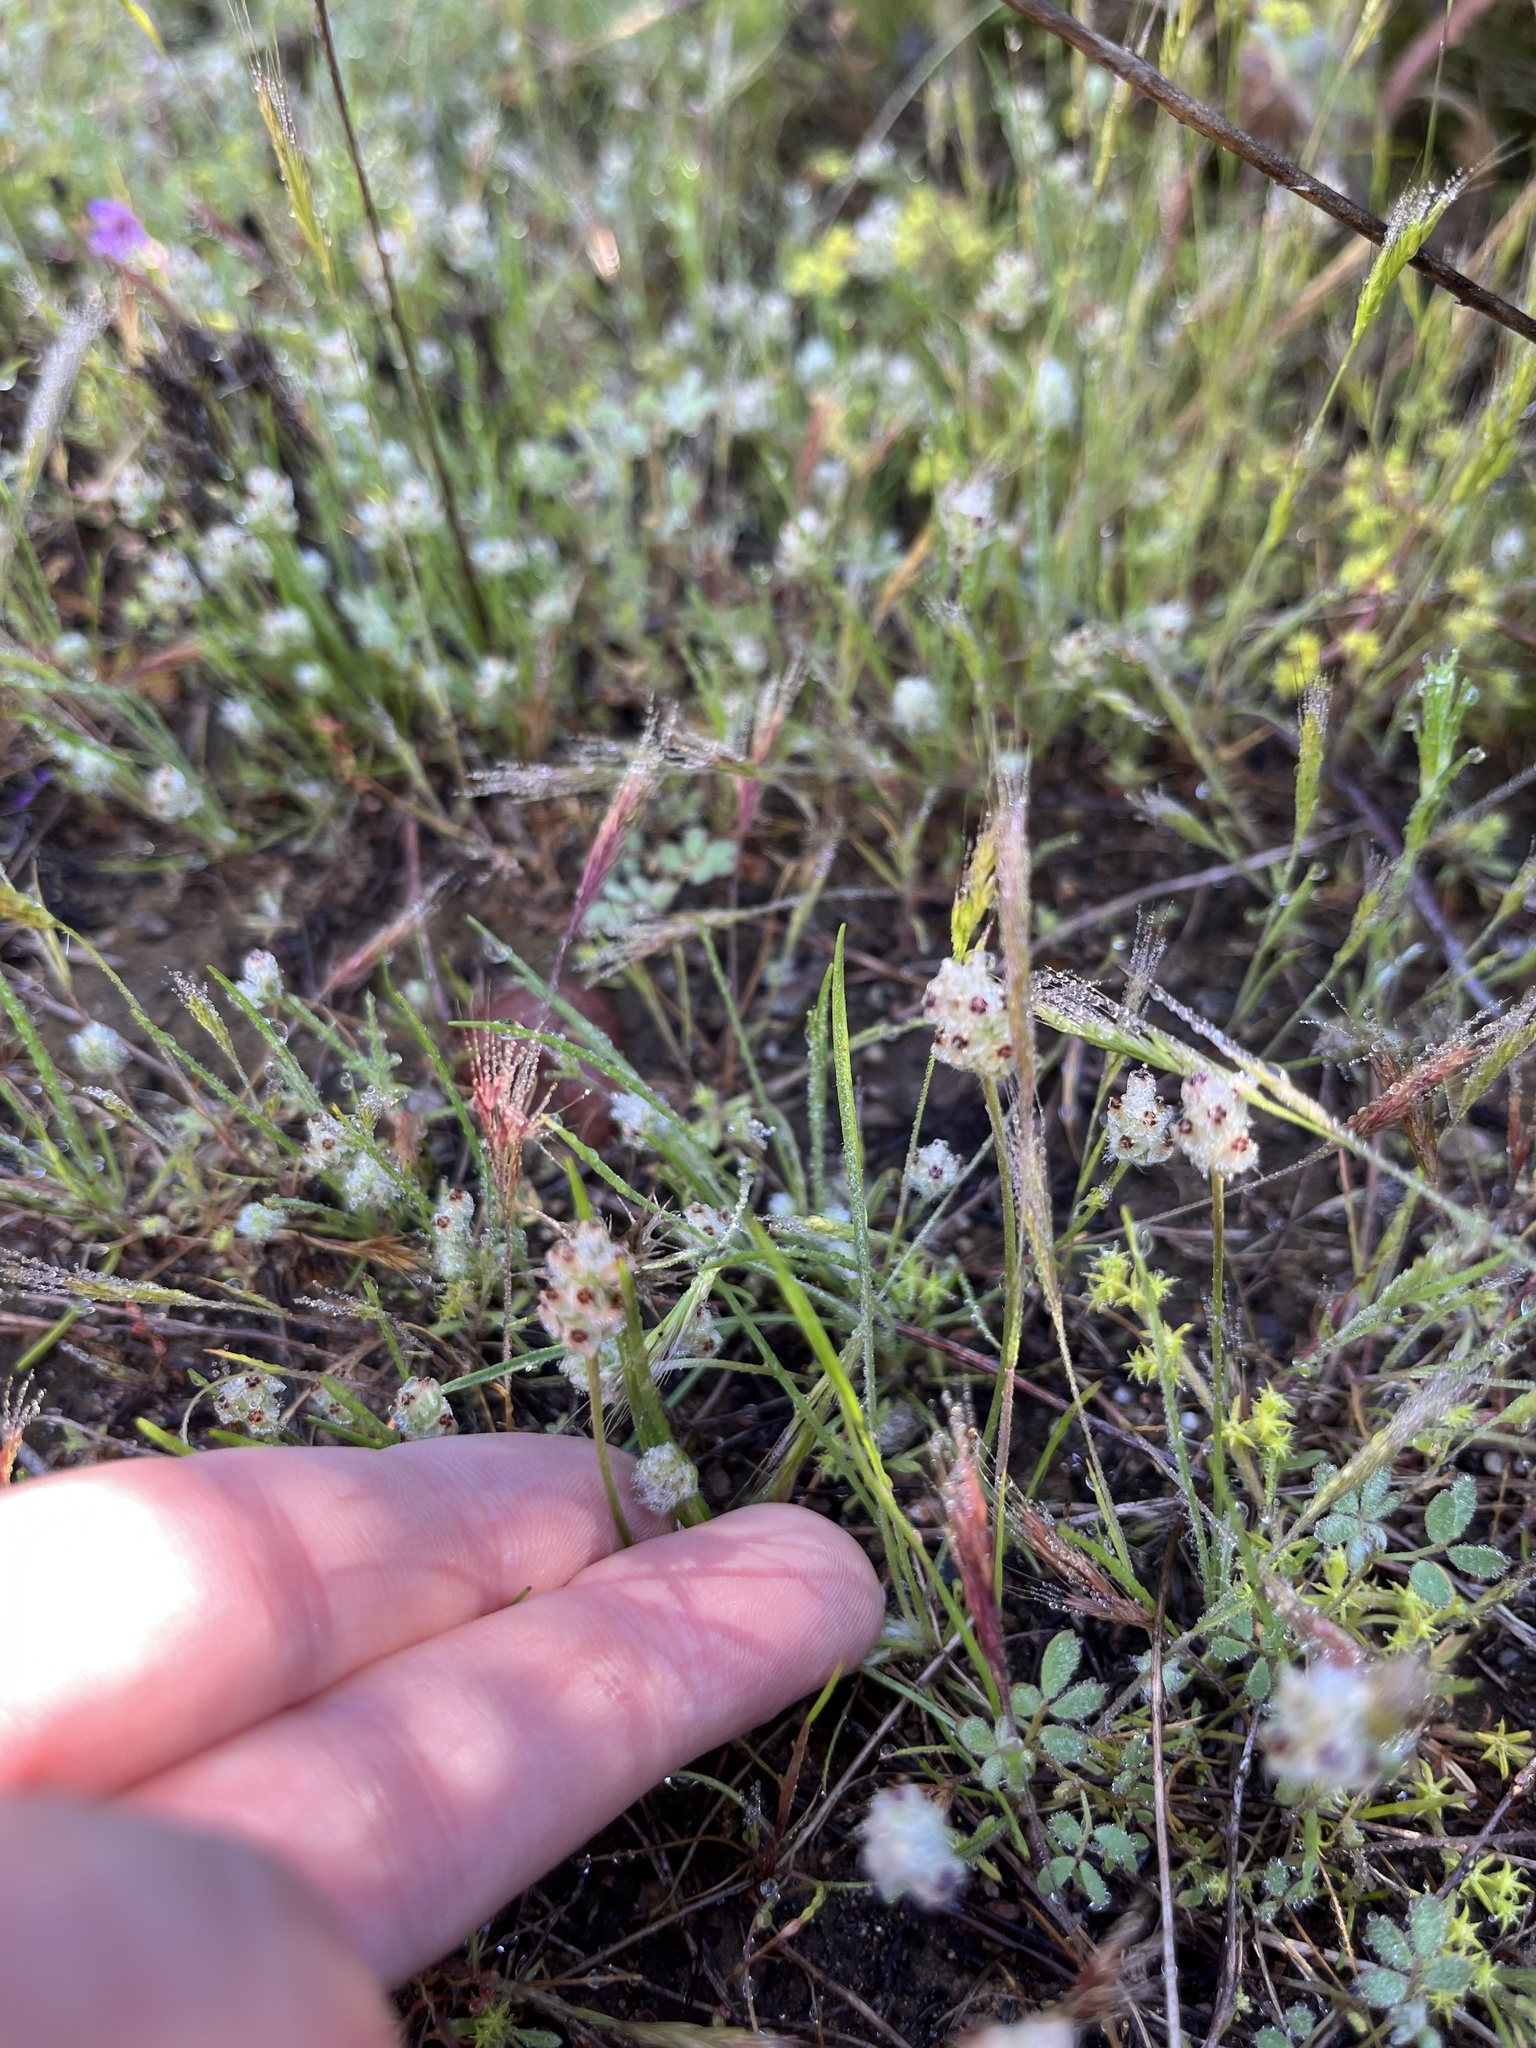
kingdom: Plantae
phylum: Tracheophyta
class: Magnoliopsida
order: Lamiales
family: Plantaginaceae
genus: Plantago
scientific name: Plantago erecta
